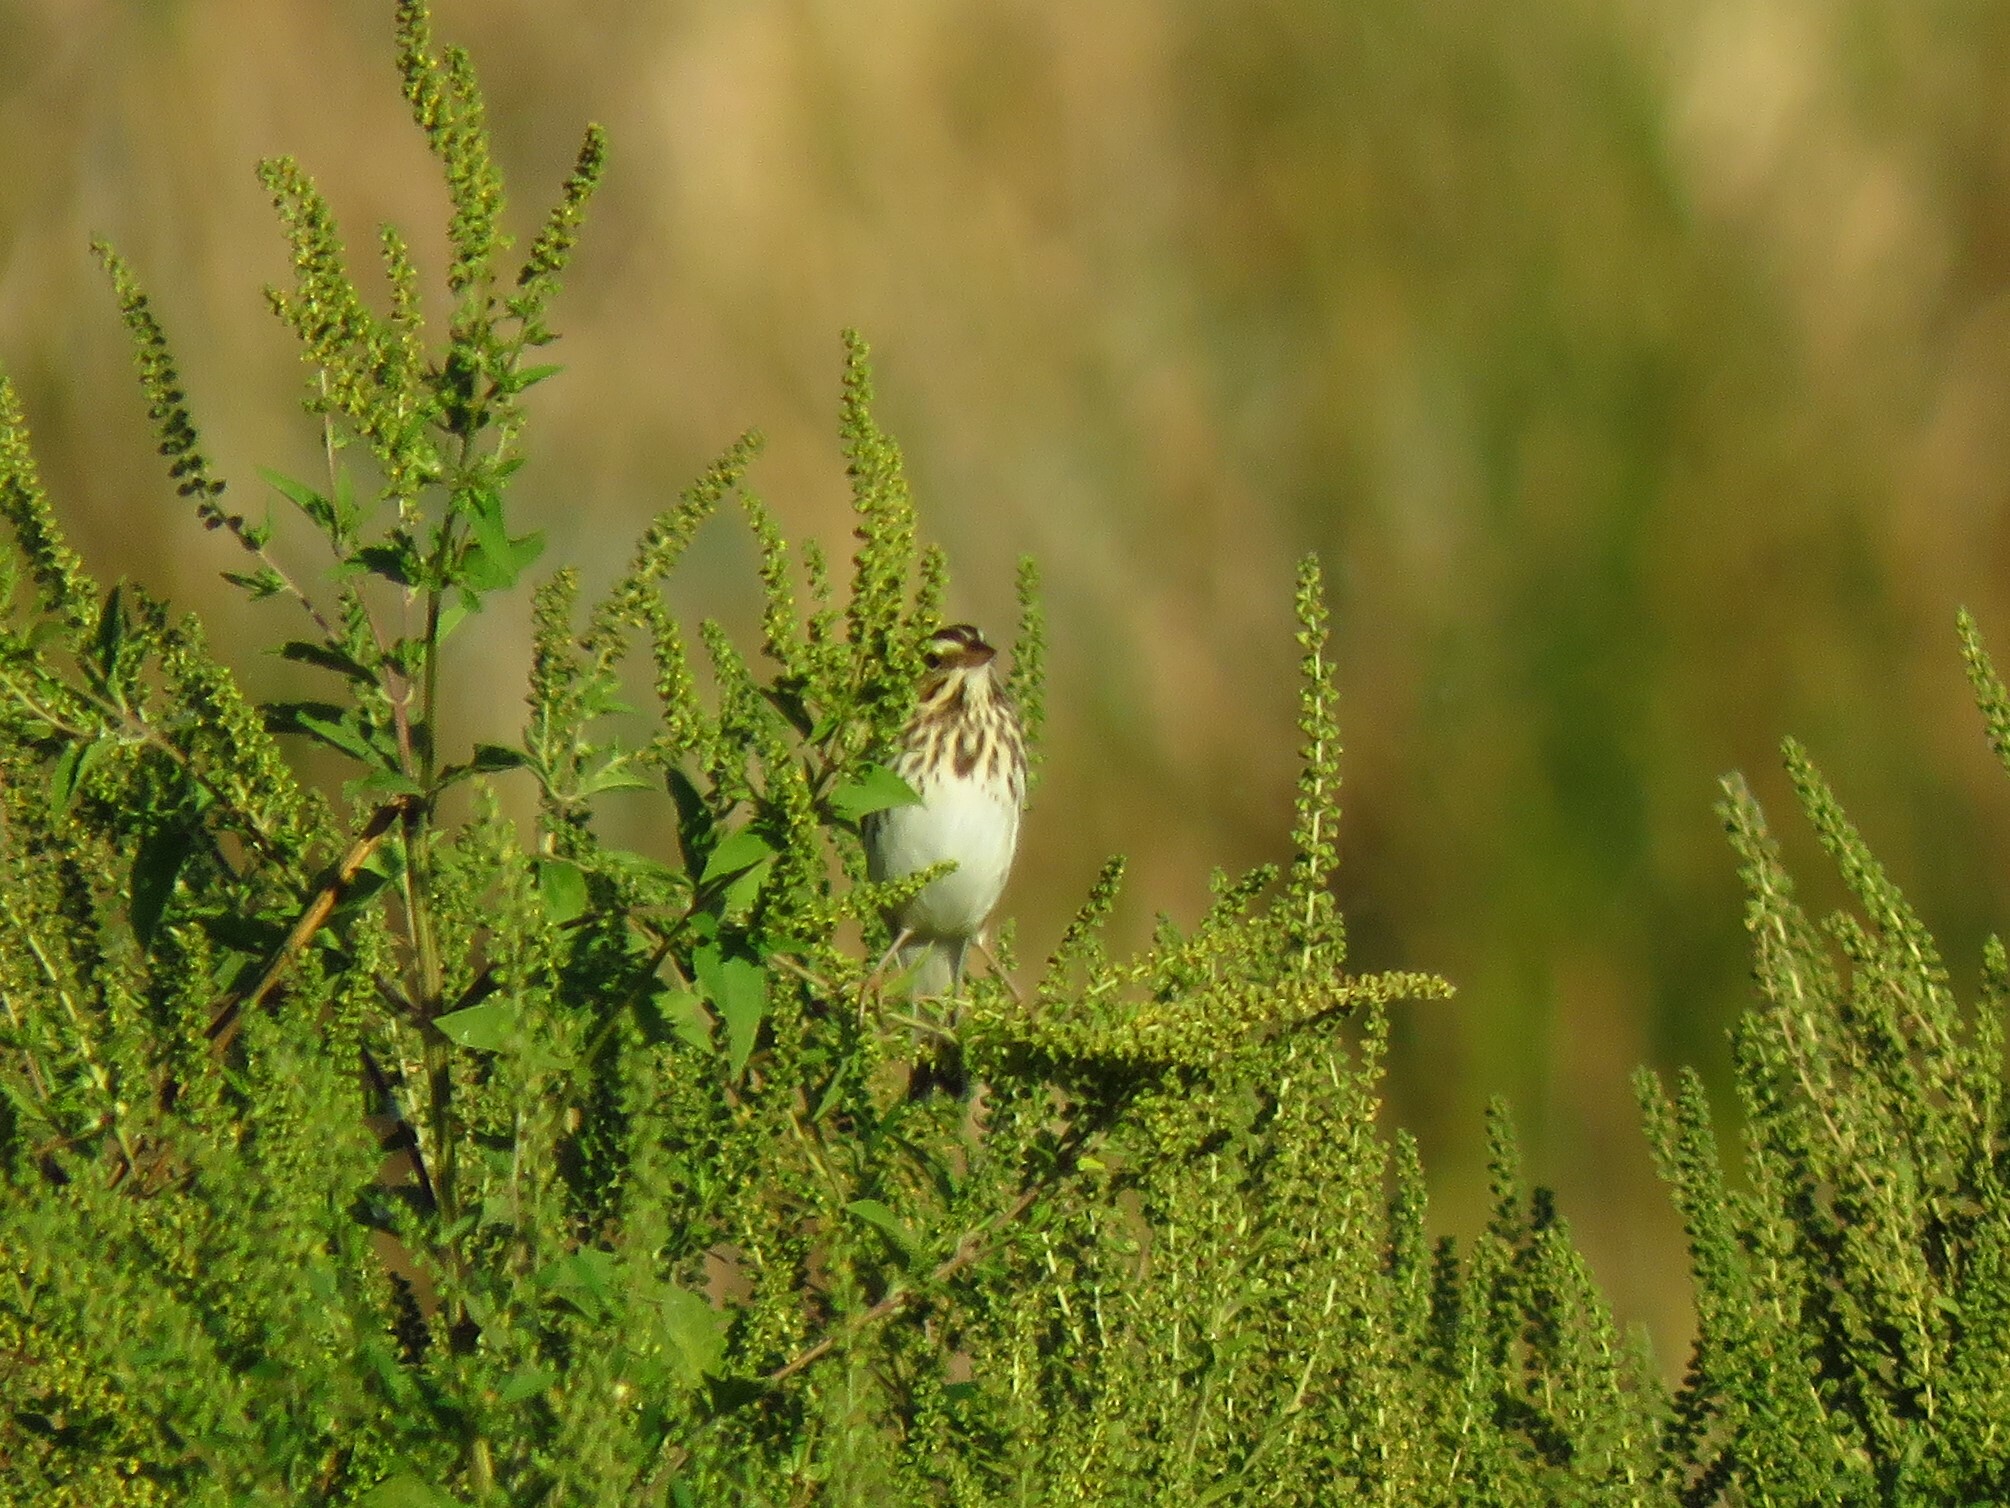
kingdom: Animalia
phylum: Chordata
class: Aves
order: Passeriformes
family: Passerellidae
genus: Passerculus
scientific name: Passerculus sandwichensis
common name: Savannah sparrow
